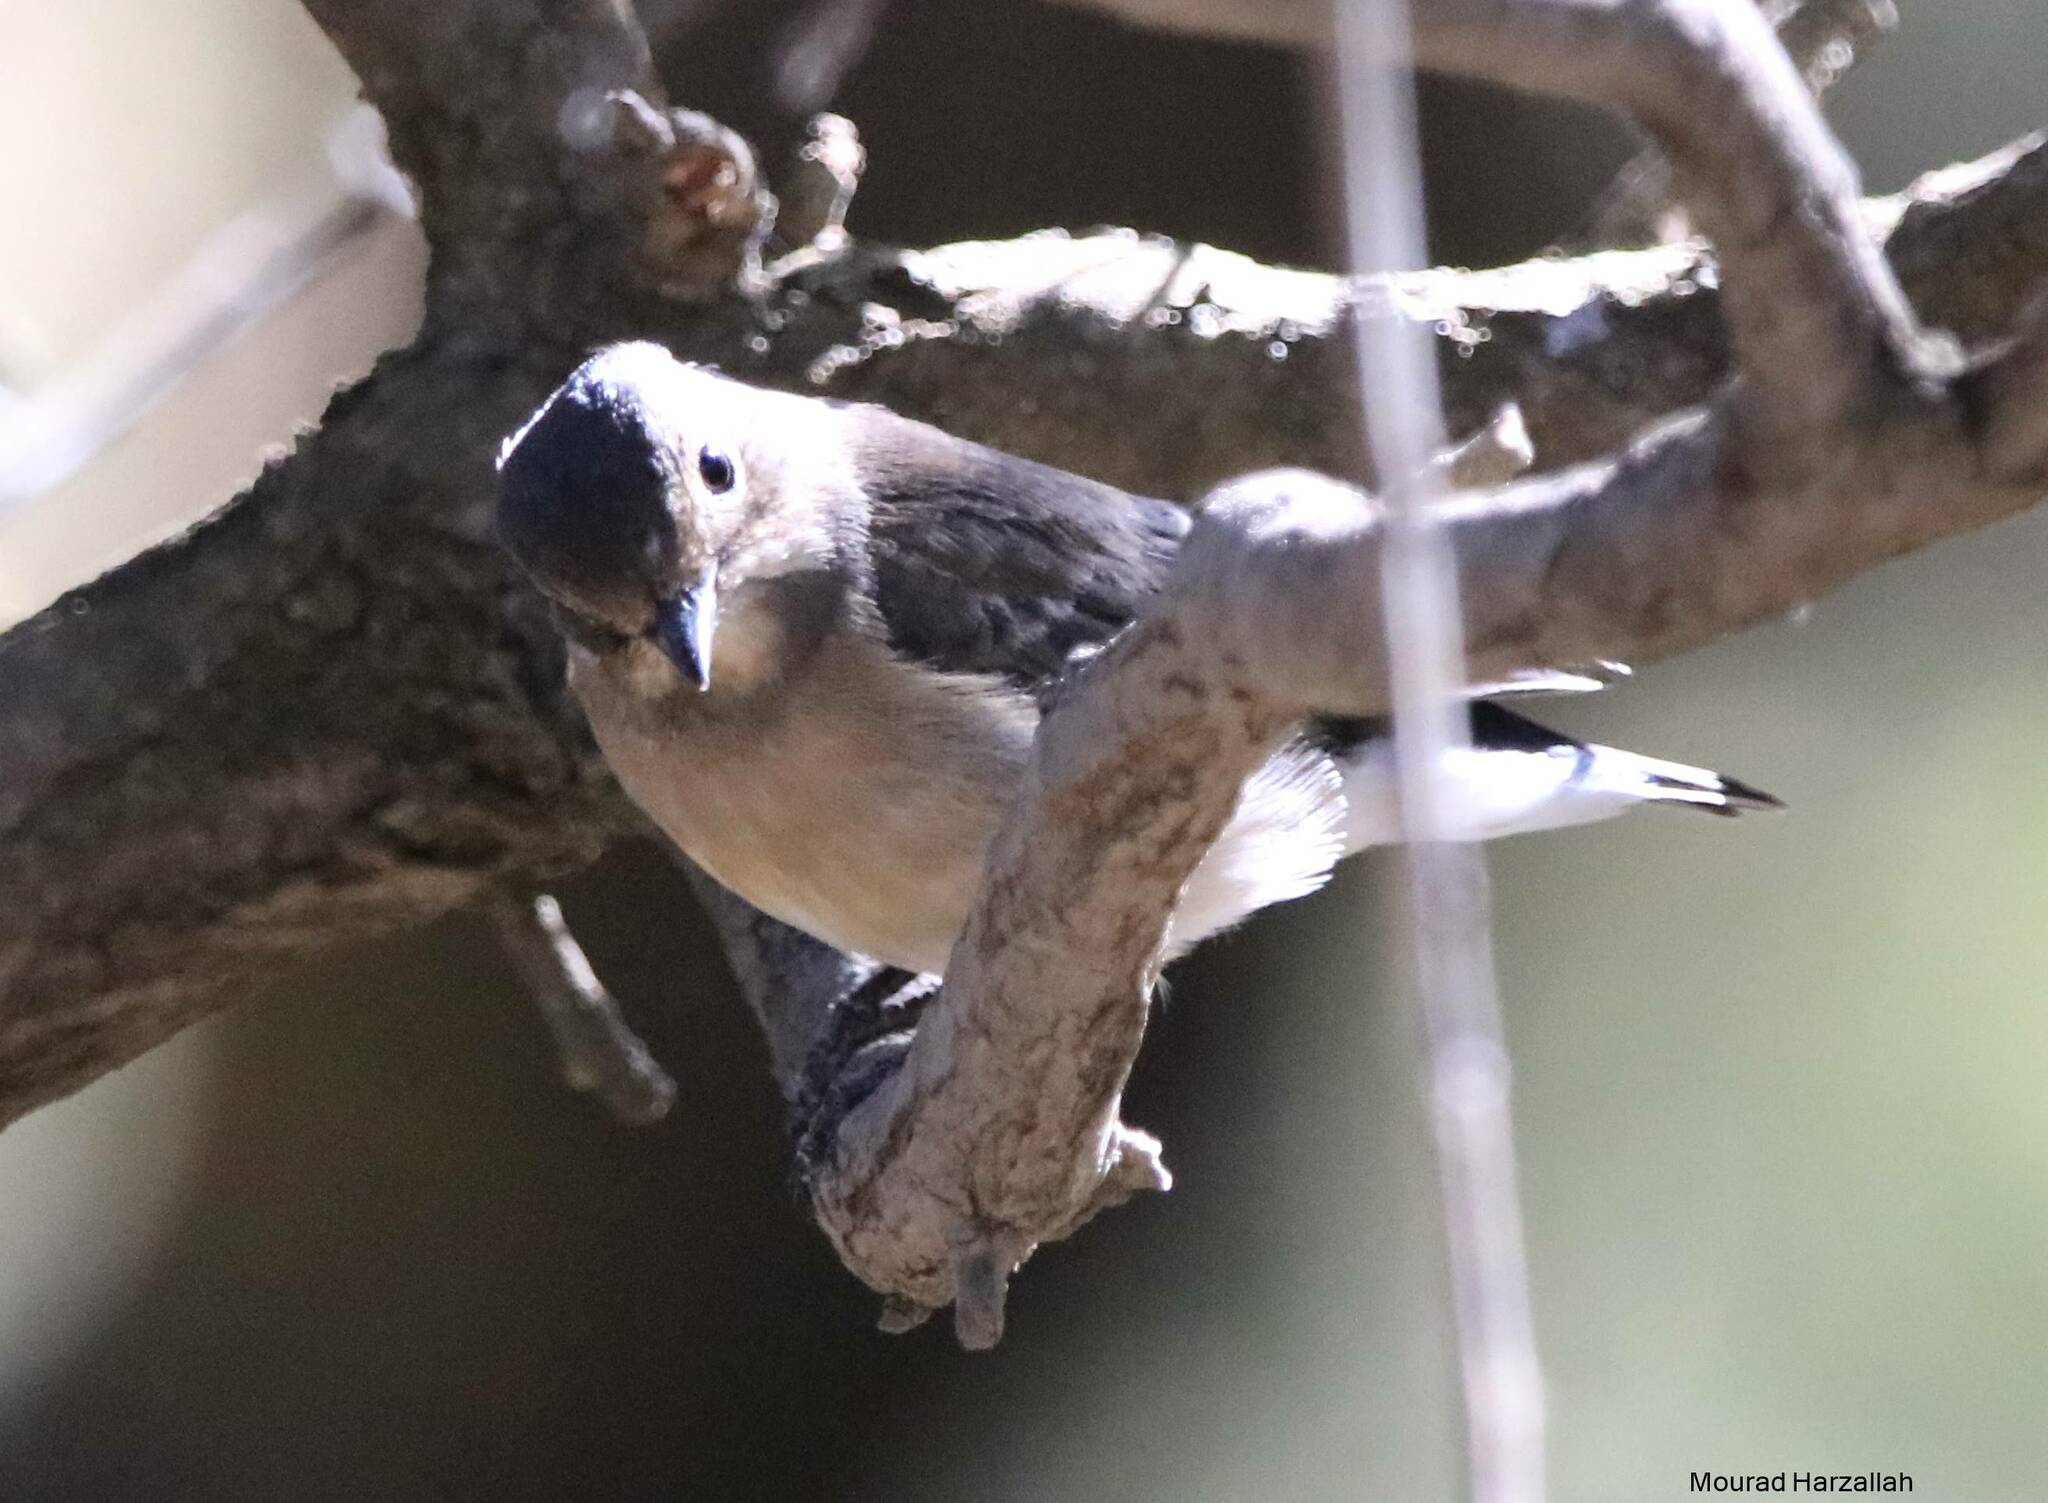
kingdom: Animalia
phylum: Chordata
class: Aves
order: Passeriformes
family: Muscicapidae
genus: Ficedula
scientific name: Ficedula speculigera
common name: Atlas pied flycatcher
